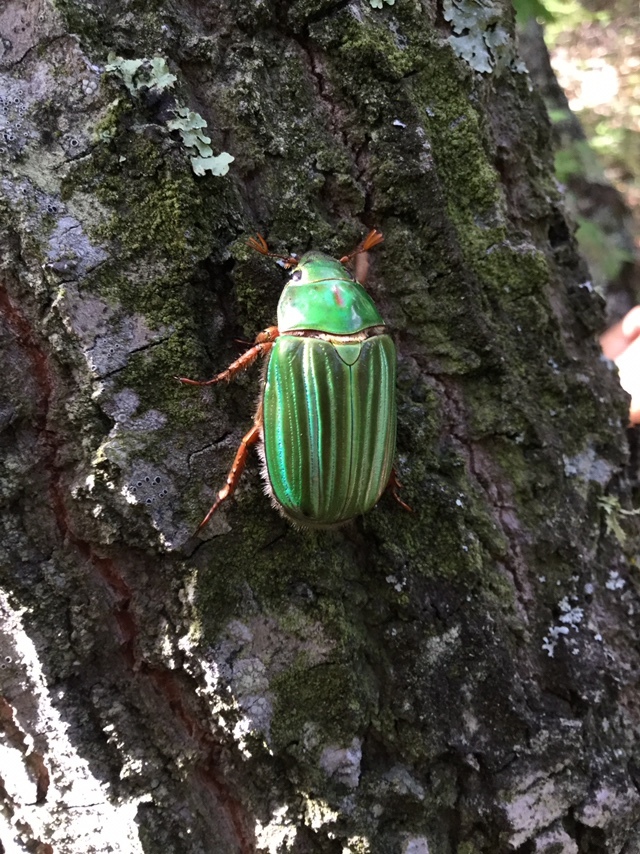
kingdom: Animalia
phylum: Arthropoda
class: Insecta
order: Coleoptera
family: Scarabaeidae
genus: Chrysina
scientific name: Chrysina adelaida
